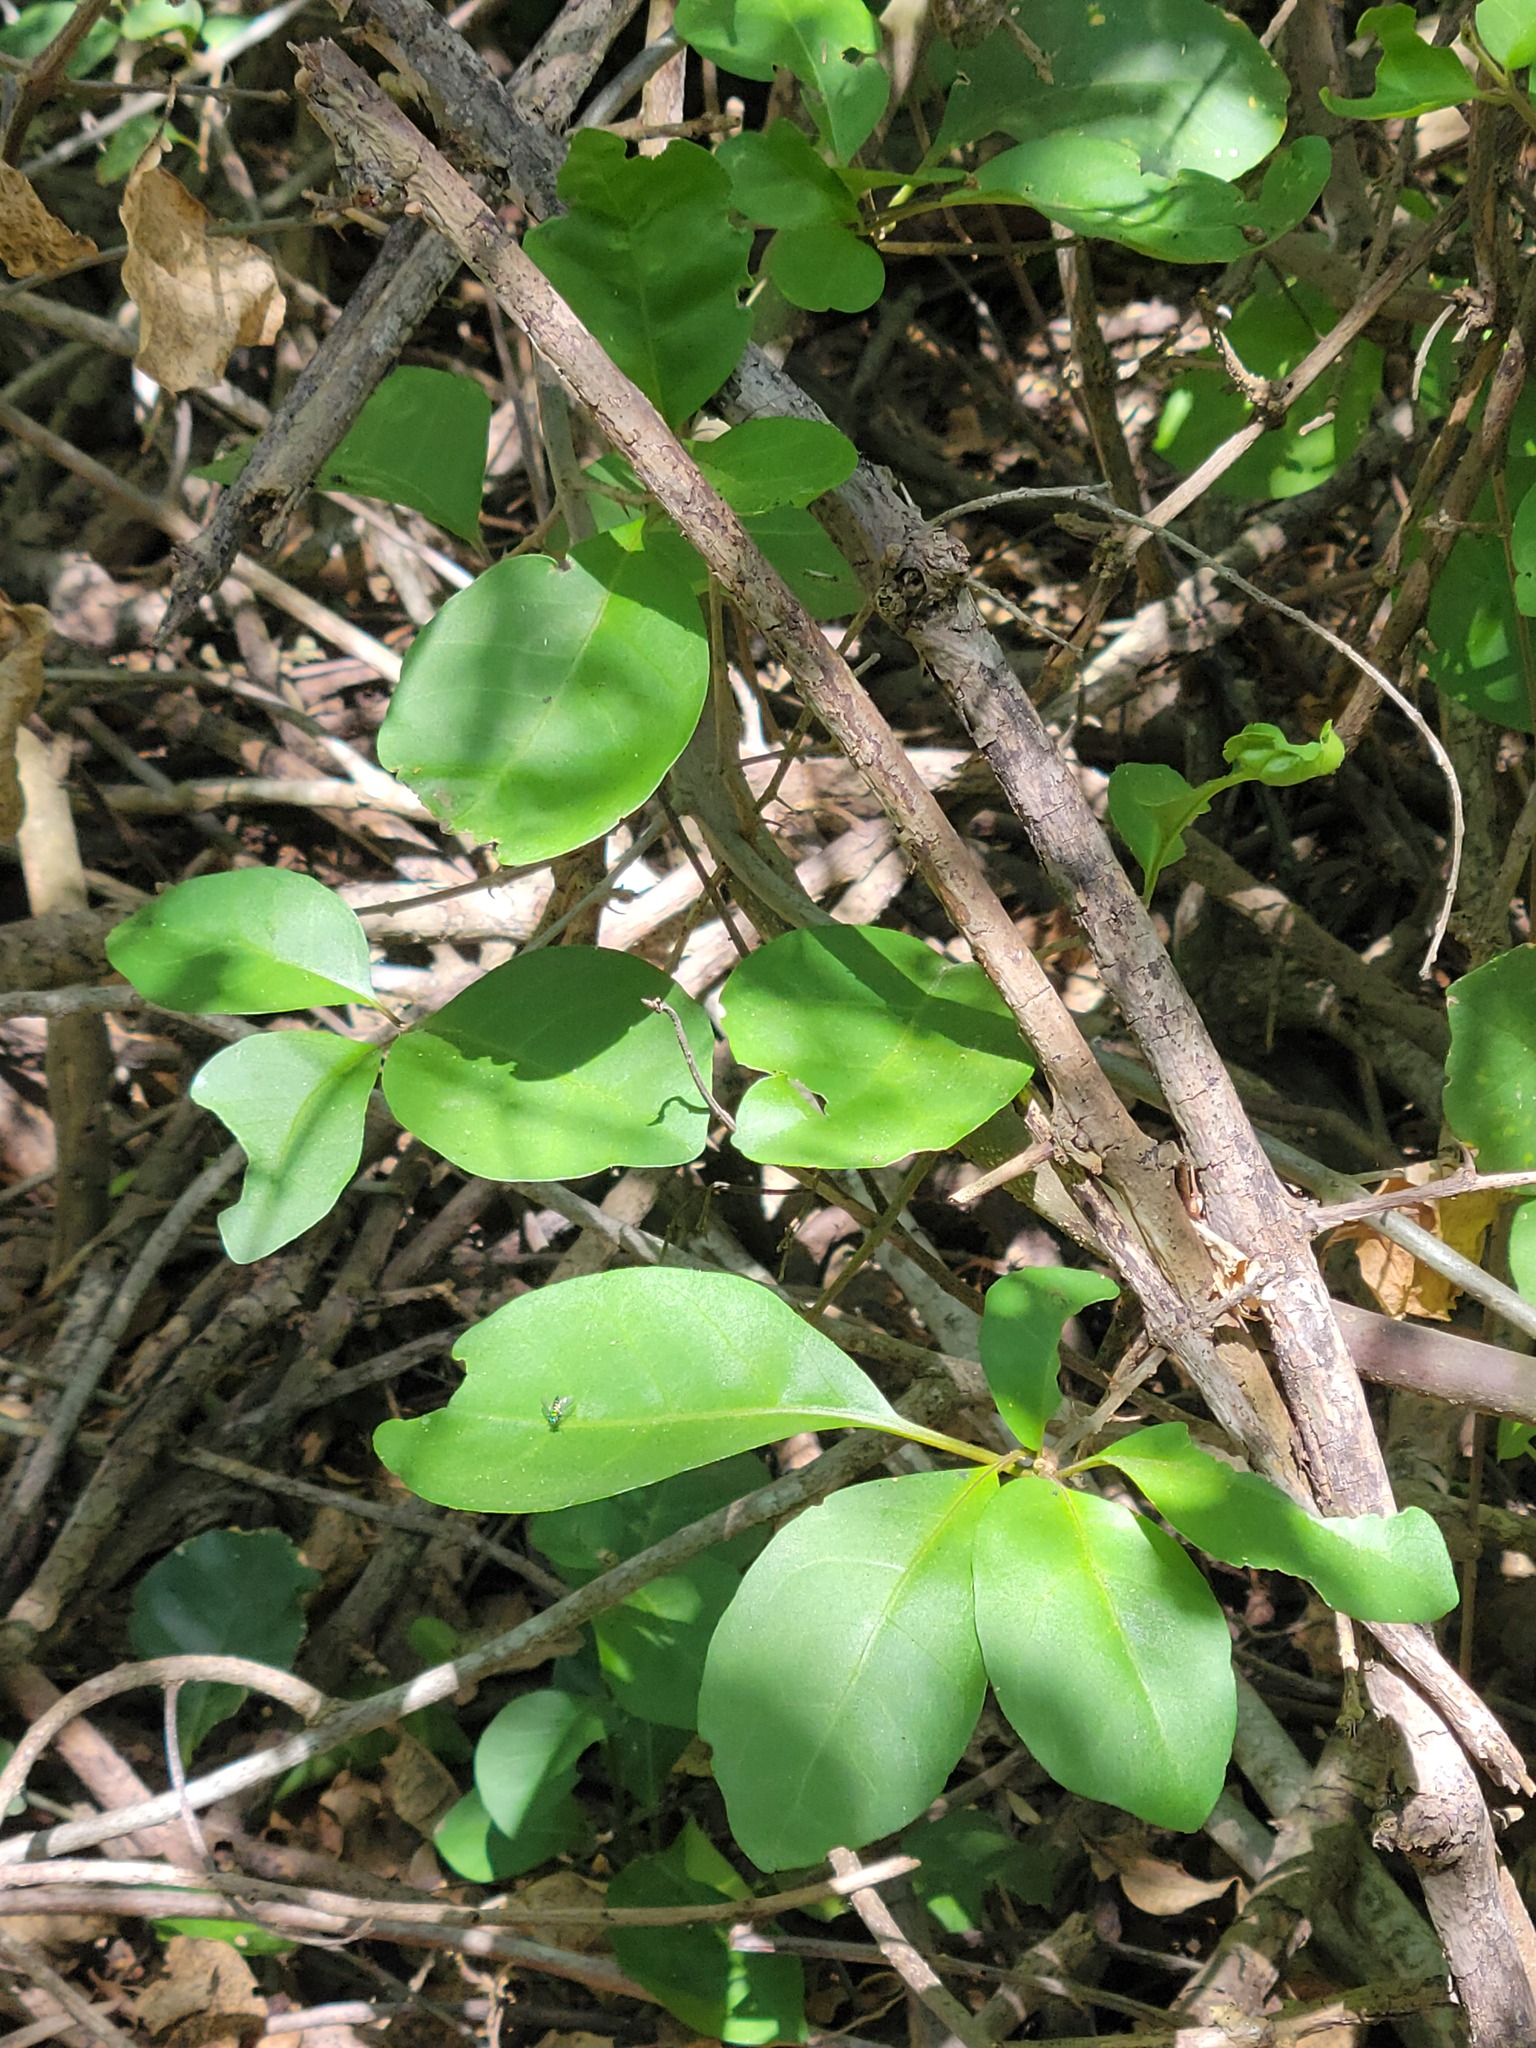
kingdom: Plantae
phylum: Tracheophyta
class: Magnoliopsida
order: Caryophyllales
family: Nyctaginaceae
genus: Pisonia
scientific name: Pisonia aculeata
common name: Cockspur vine
